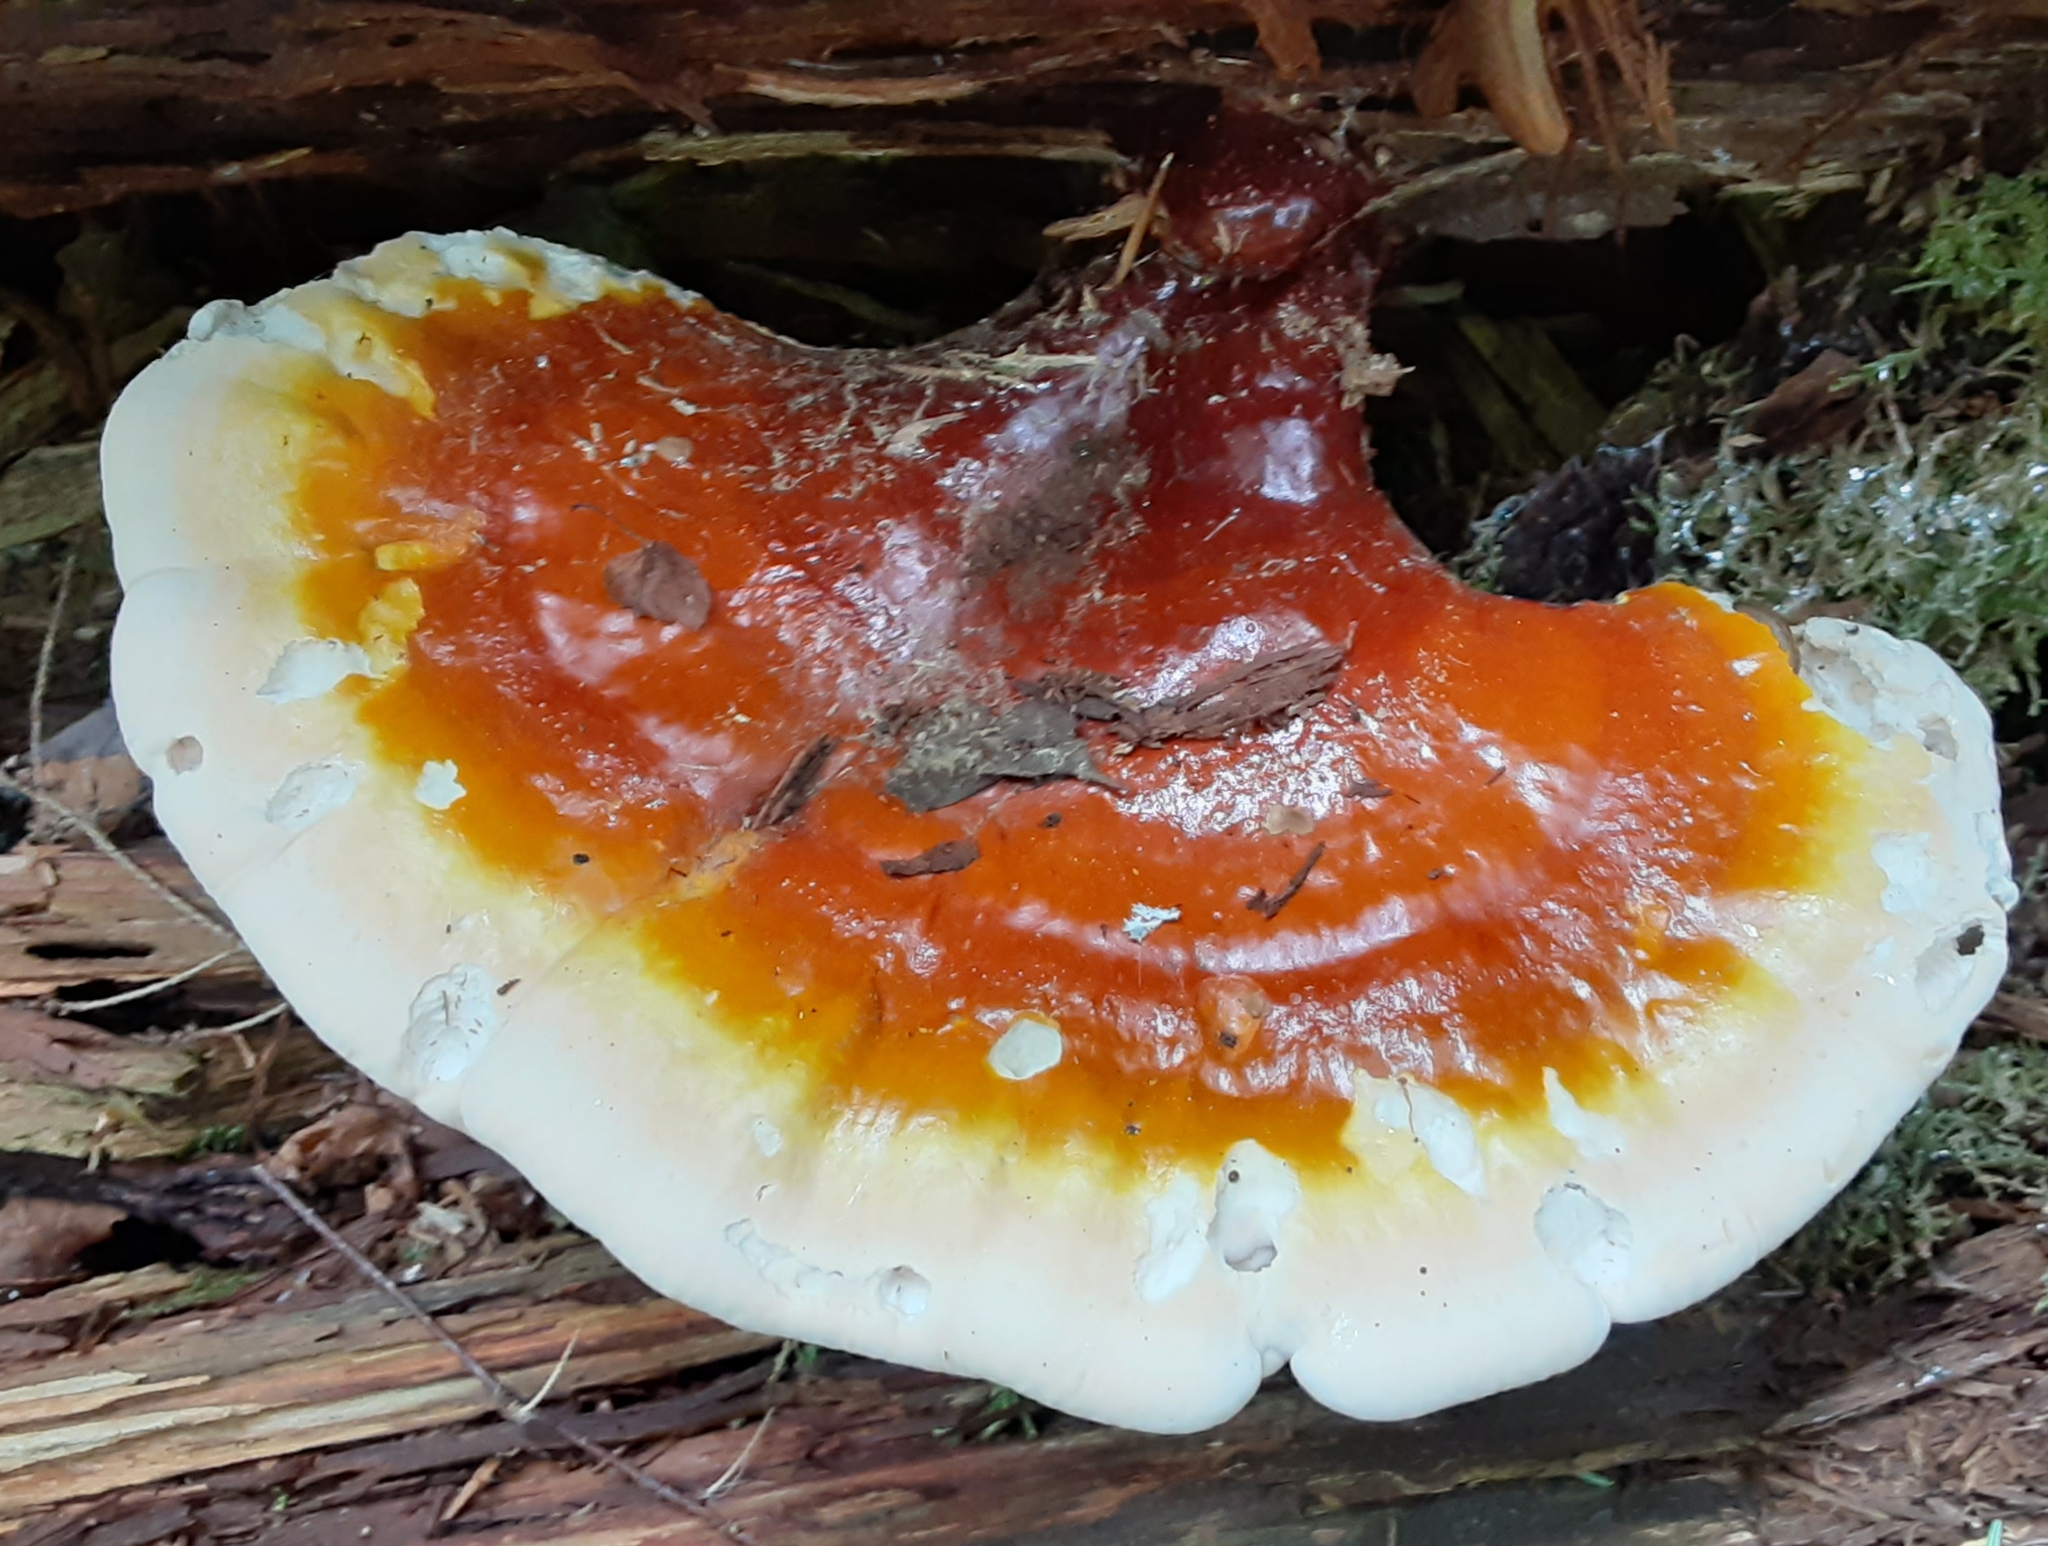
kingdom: Fungi
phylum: Basidiomycota
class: Agaricomycetes
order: Polyporales
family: Polyporaceae
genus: Ganoderma
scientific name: Ganoderma tsugae
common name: Hemlock varnish shelf
